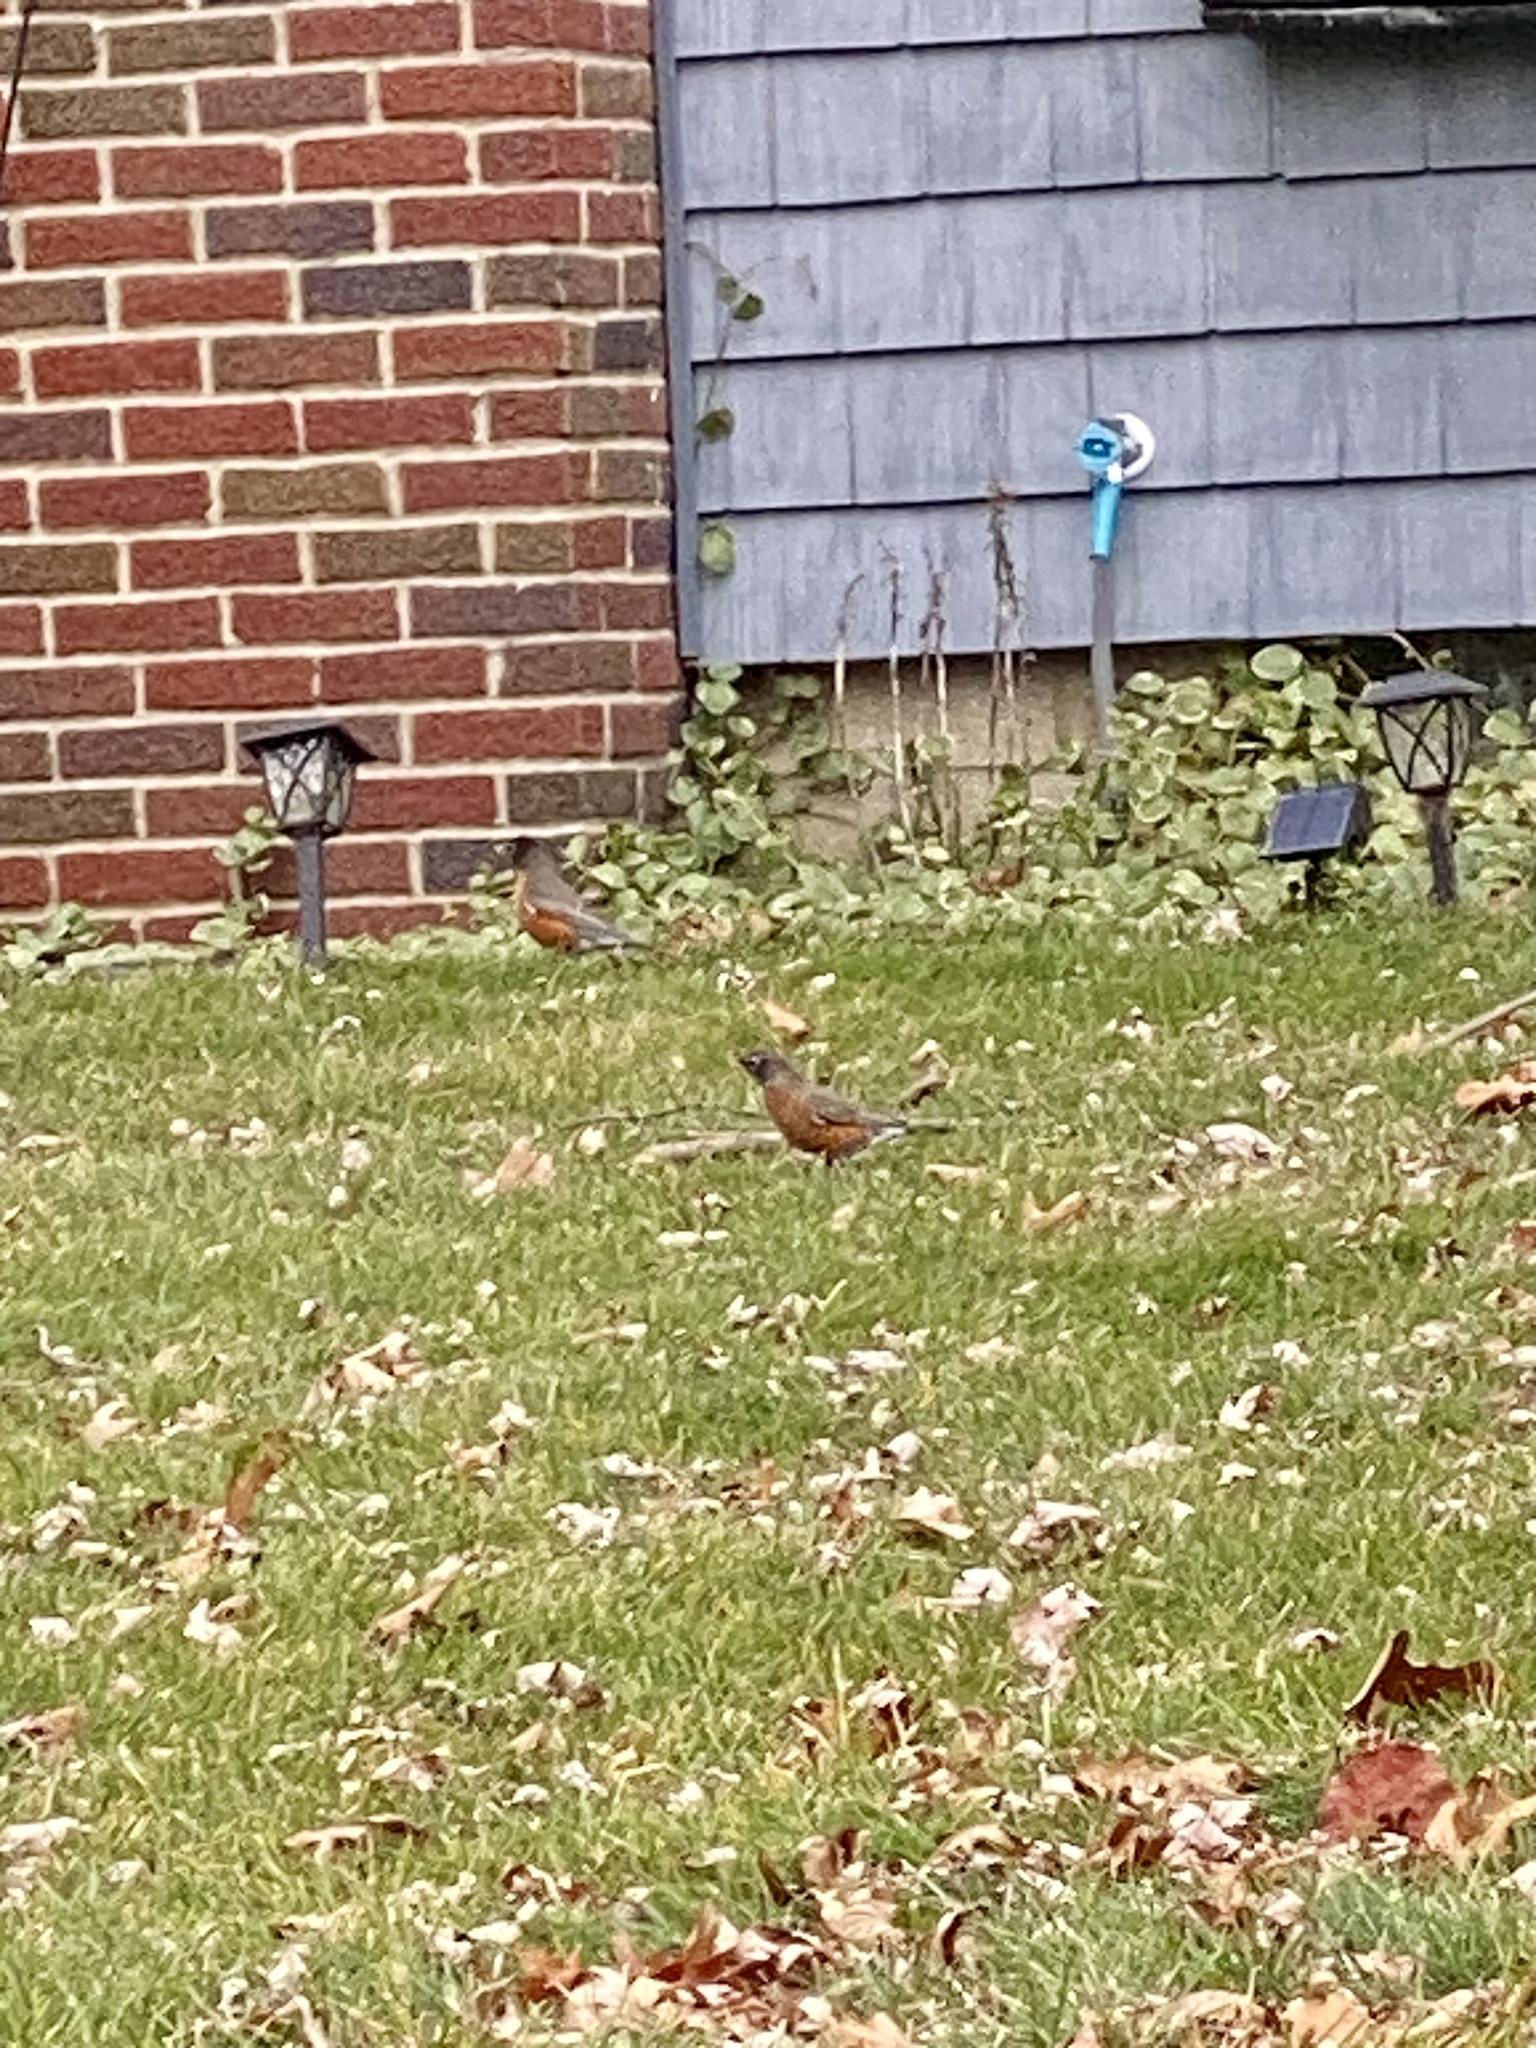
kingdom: Animalia
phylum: Chordata
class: Aves
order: Passeriformes
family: Turdidae
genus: Turdus
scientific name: Turdus migratorius
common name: American robin
